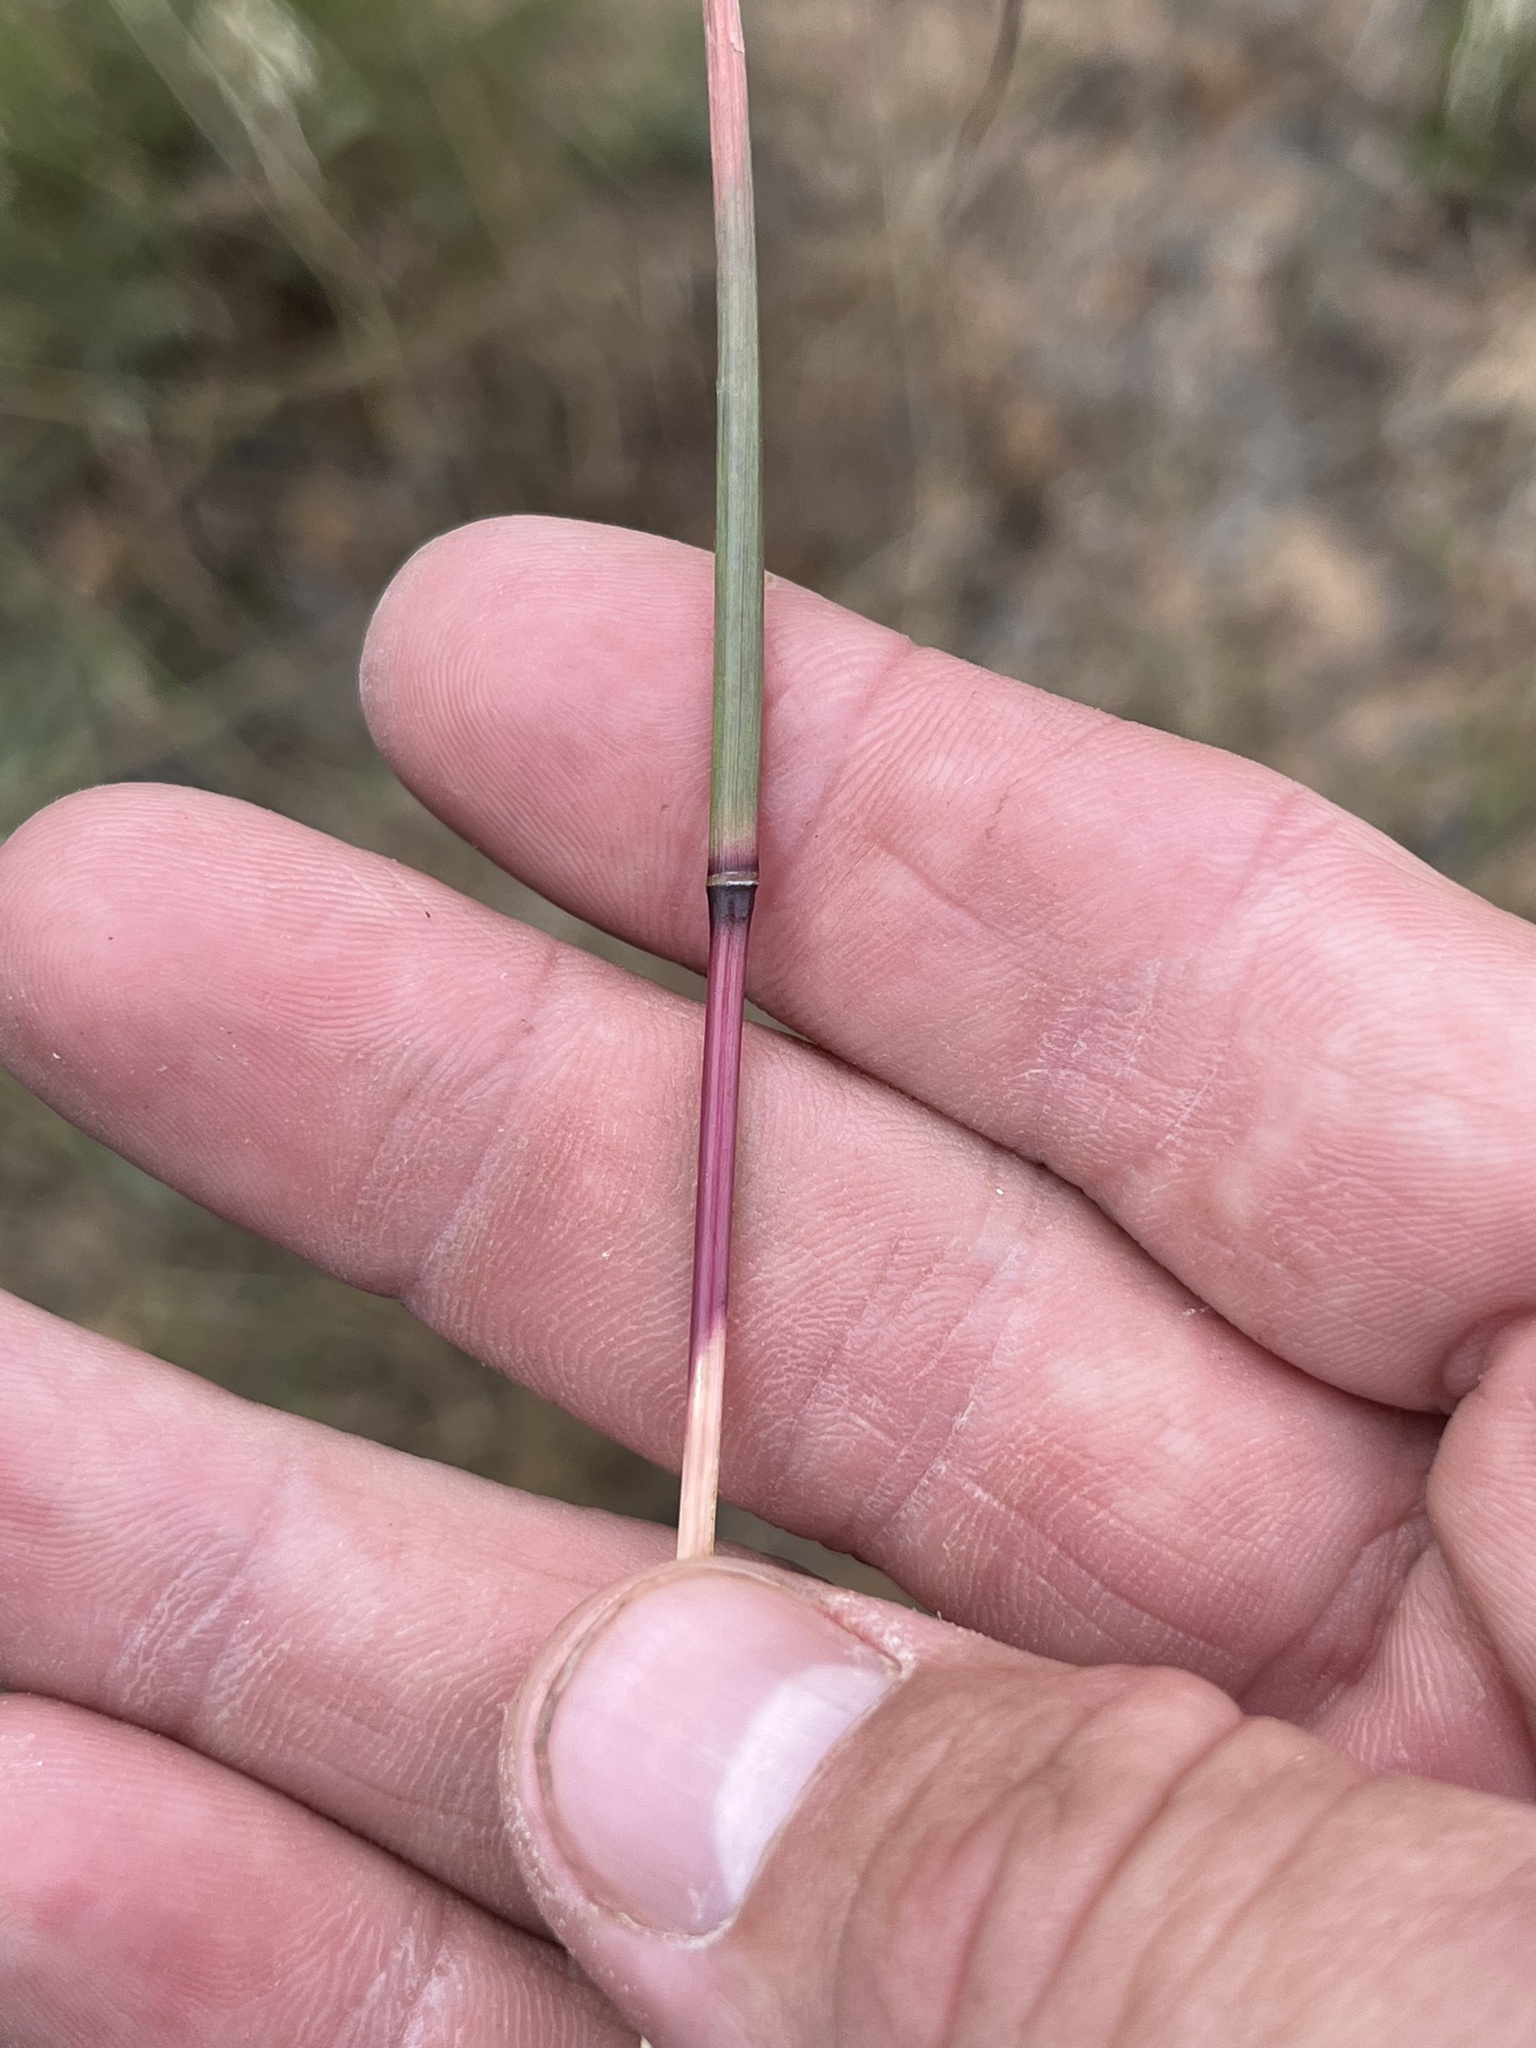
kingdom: Plantae
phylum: Tracheophyta
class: Liliopsida
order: Poales
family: Poaceae
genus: Schizachyrium
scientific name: Schizachyrium scoparium
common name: Little bluestem
